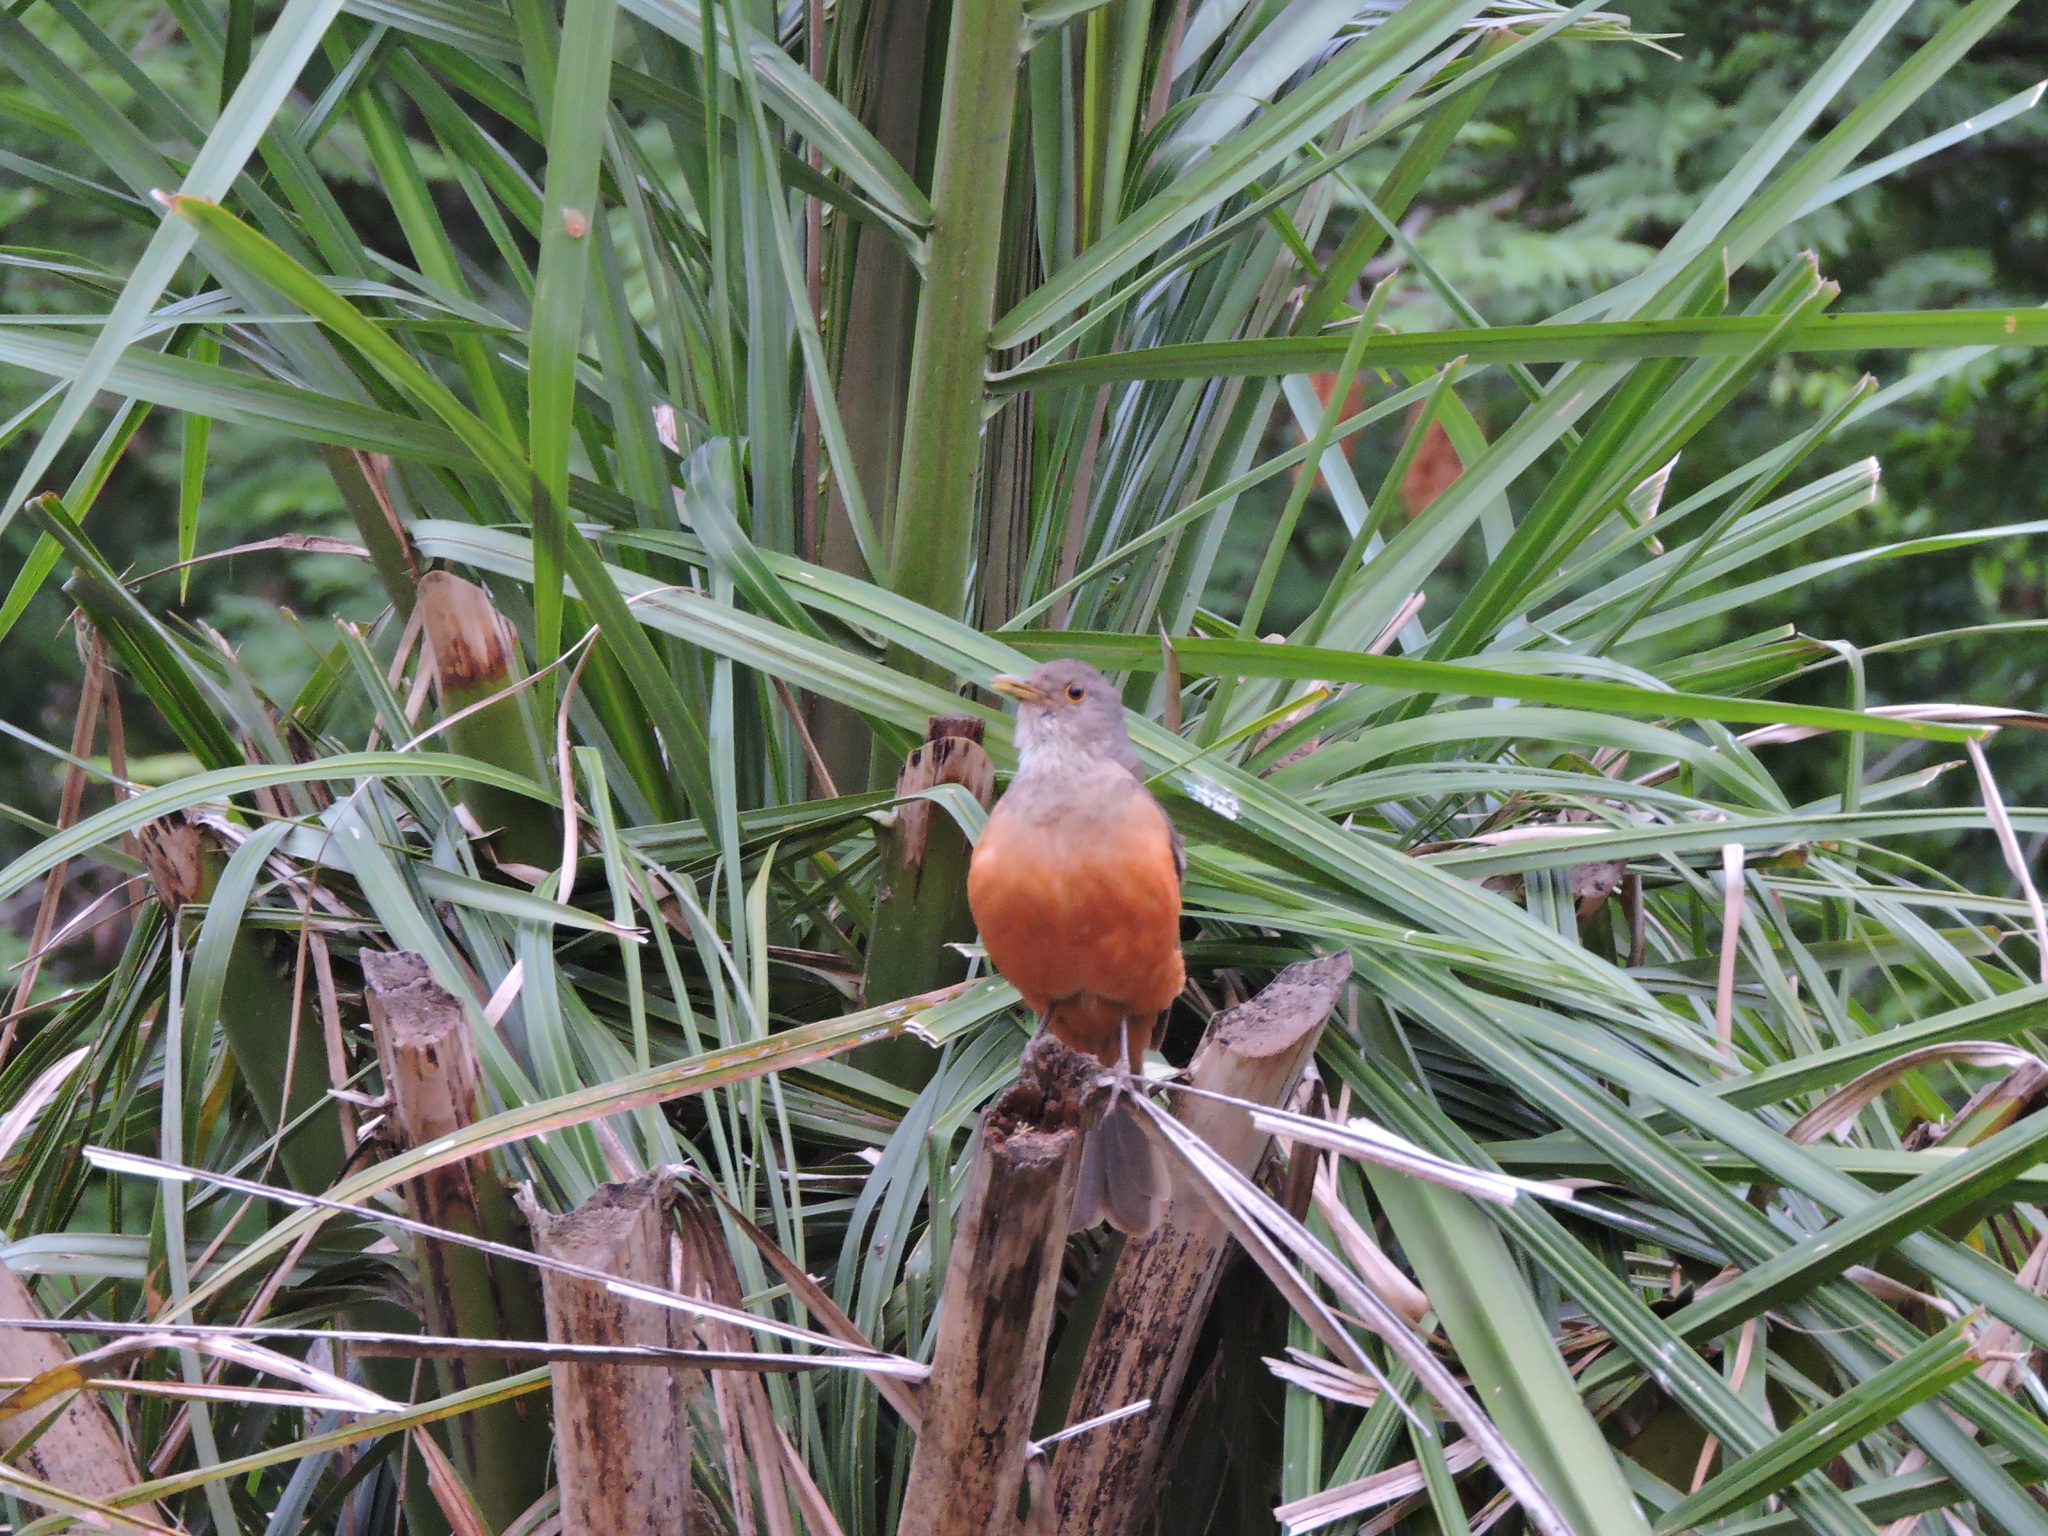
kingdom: Animalia
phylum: Chordata
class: Aves
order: Passeriformes
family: Turdidae
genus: Turdus
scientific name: Turdus rufiventris
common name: Rufous-bellied thrush
